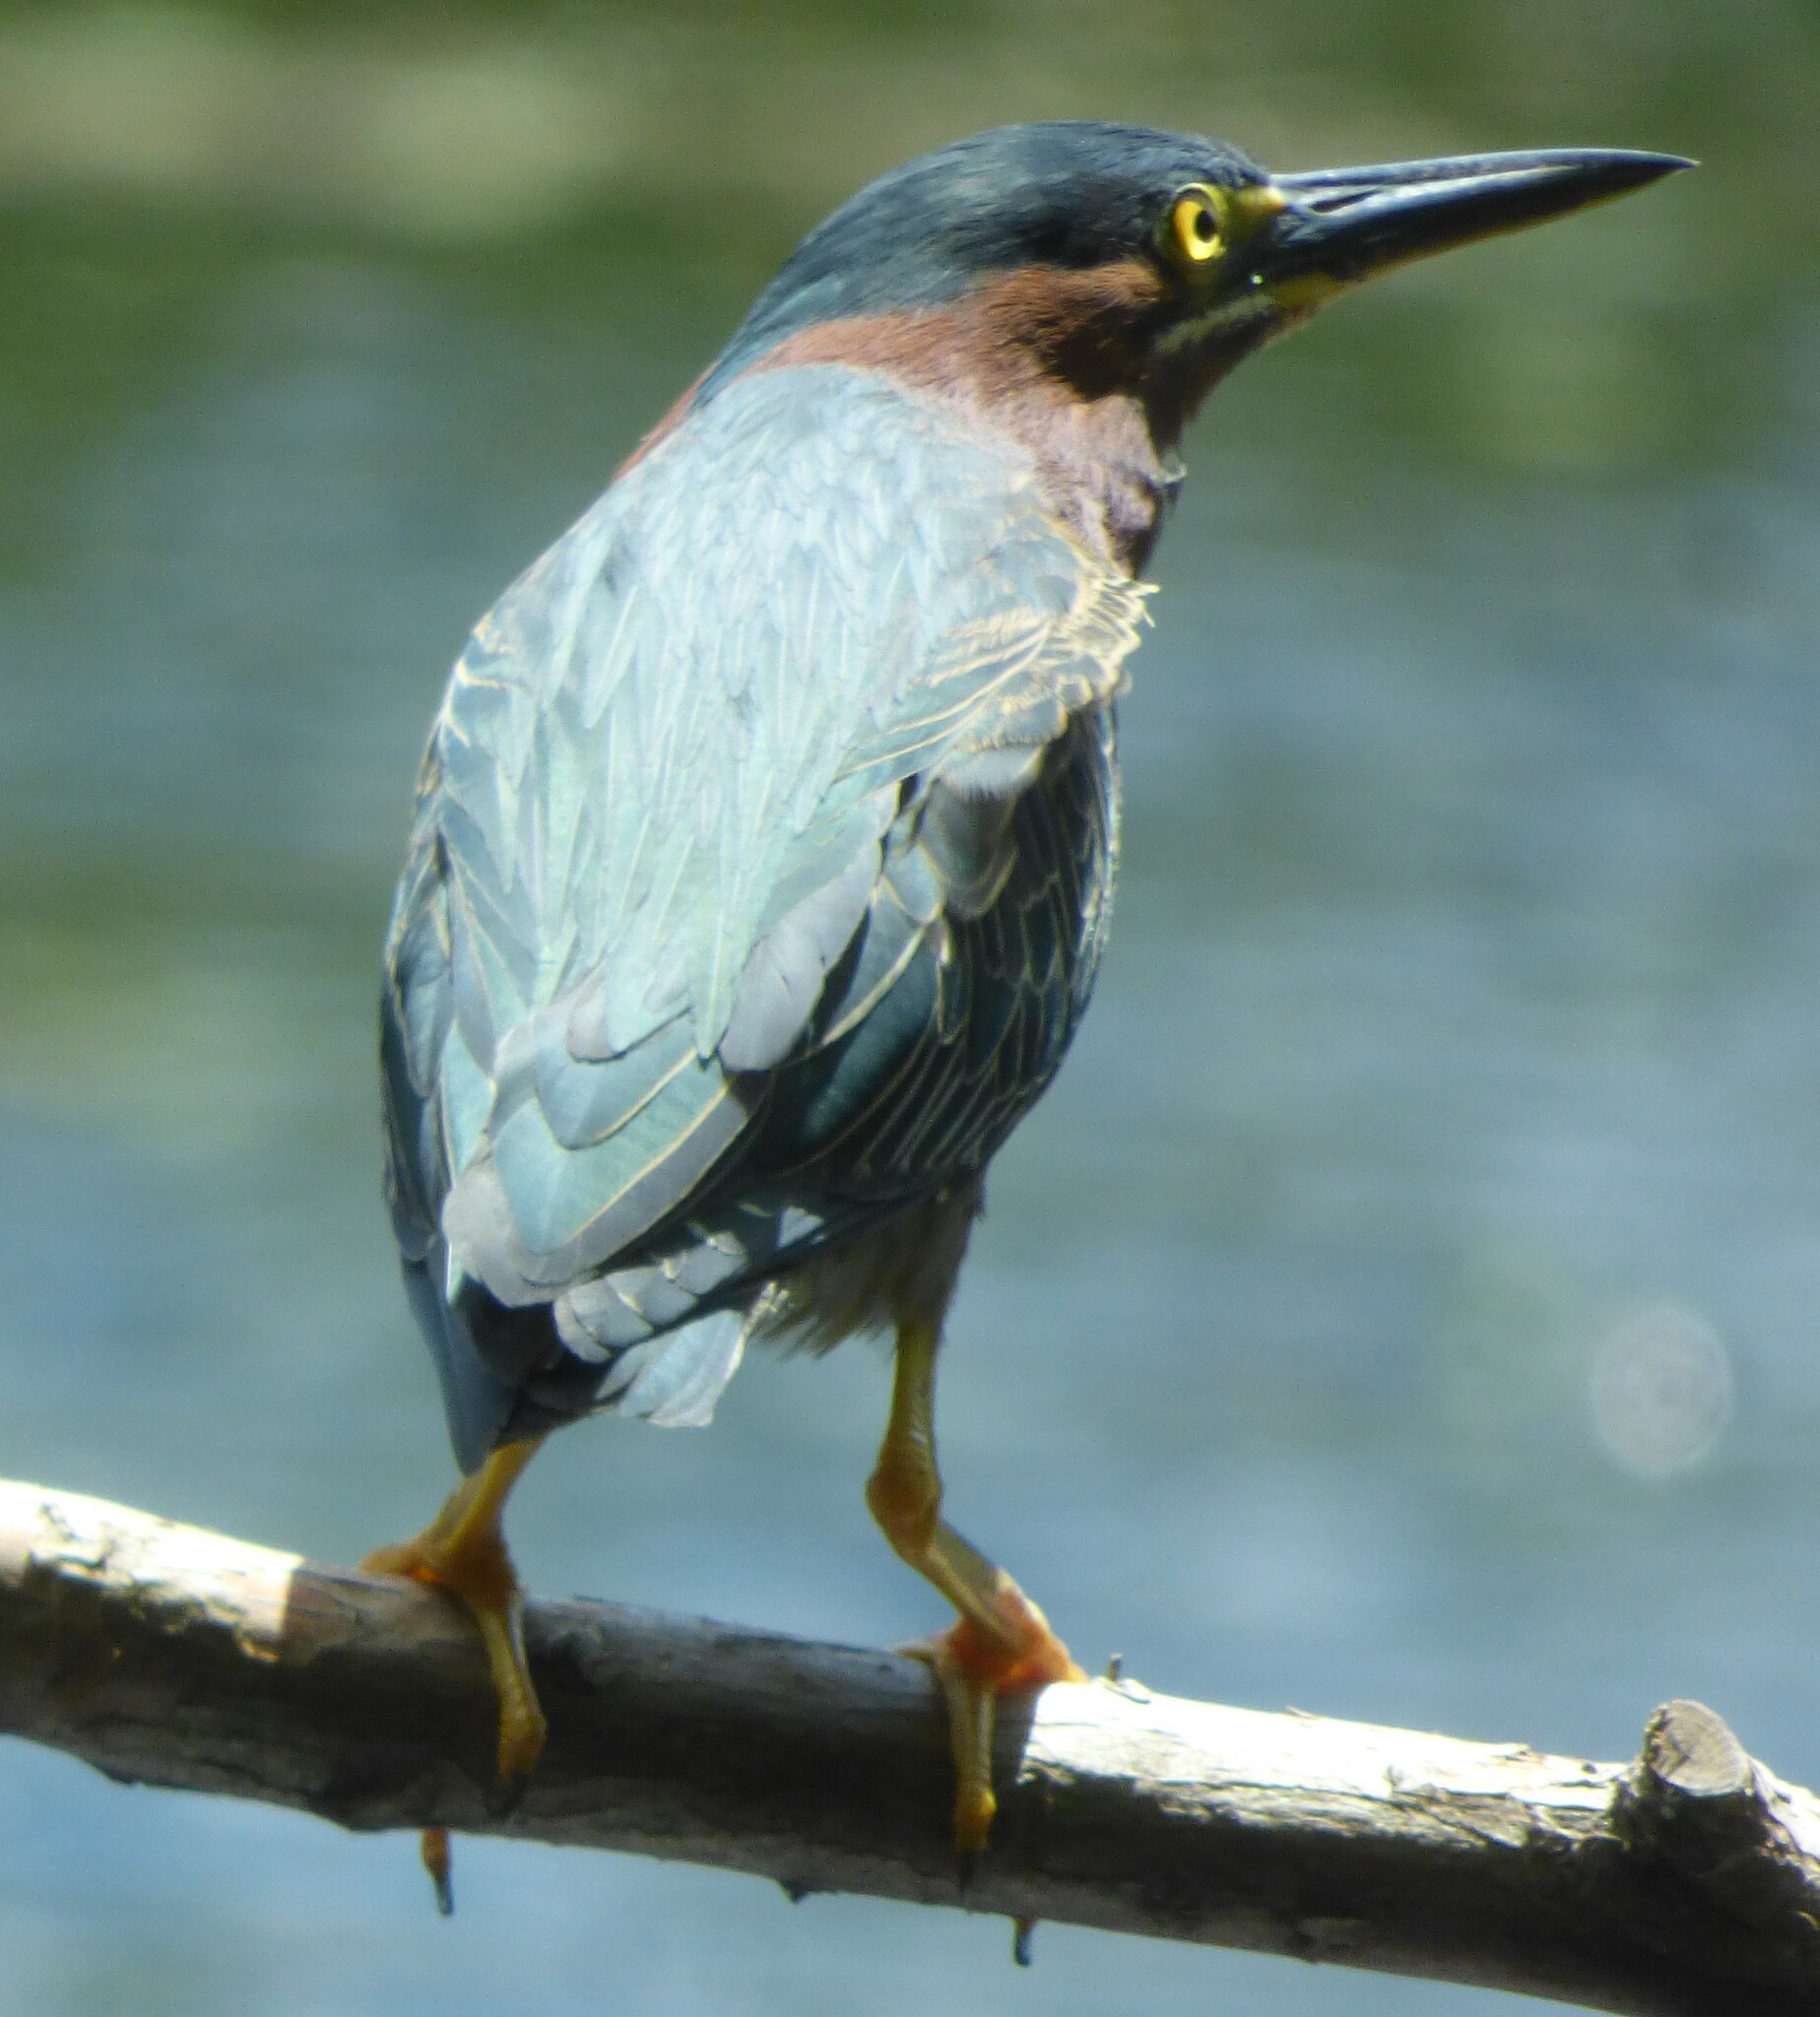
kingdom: Animalia
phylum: Chordata
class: Aves
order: Pelecaniformes
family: Ardeidae
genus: Butorides
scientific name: Butorides virescens
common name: Green heron
